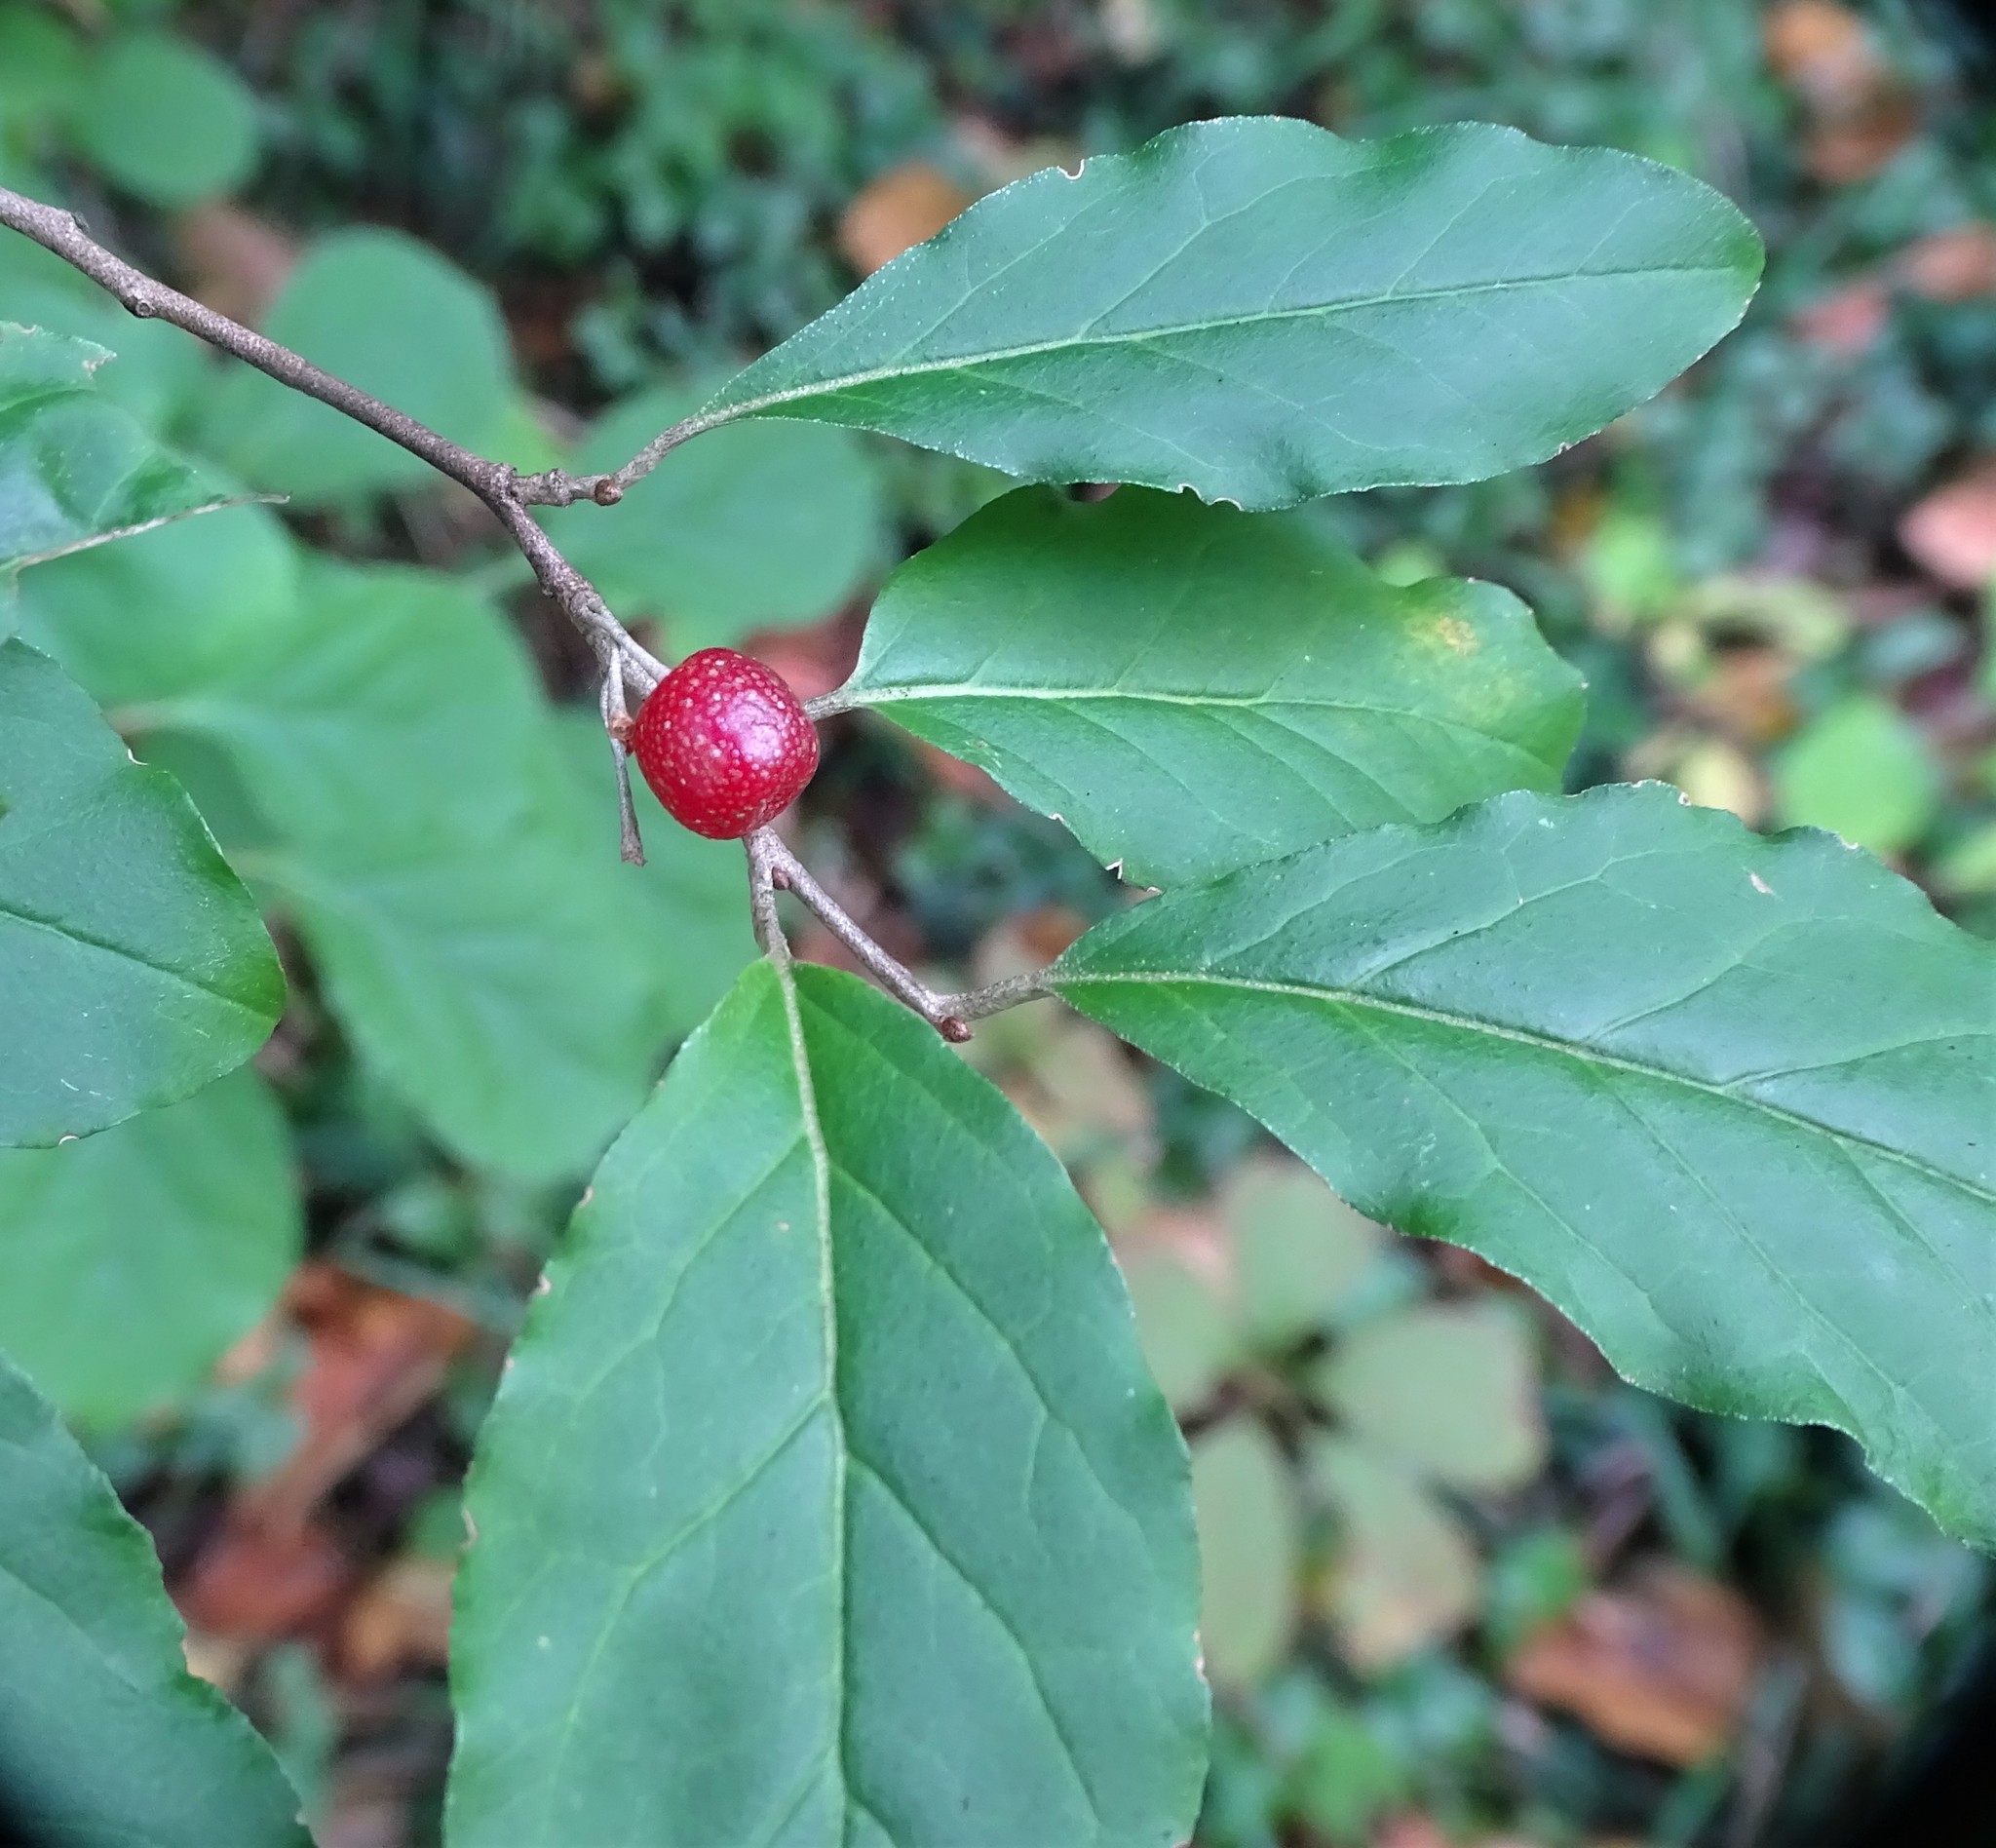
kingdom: Plantae
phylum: Tracheophyta
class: Magnoliopsida
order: Rosales
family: Elaeagnaceae
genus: Elaeagnus
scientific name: Elaeagnus umbellata
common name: Autumn olive
